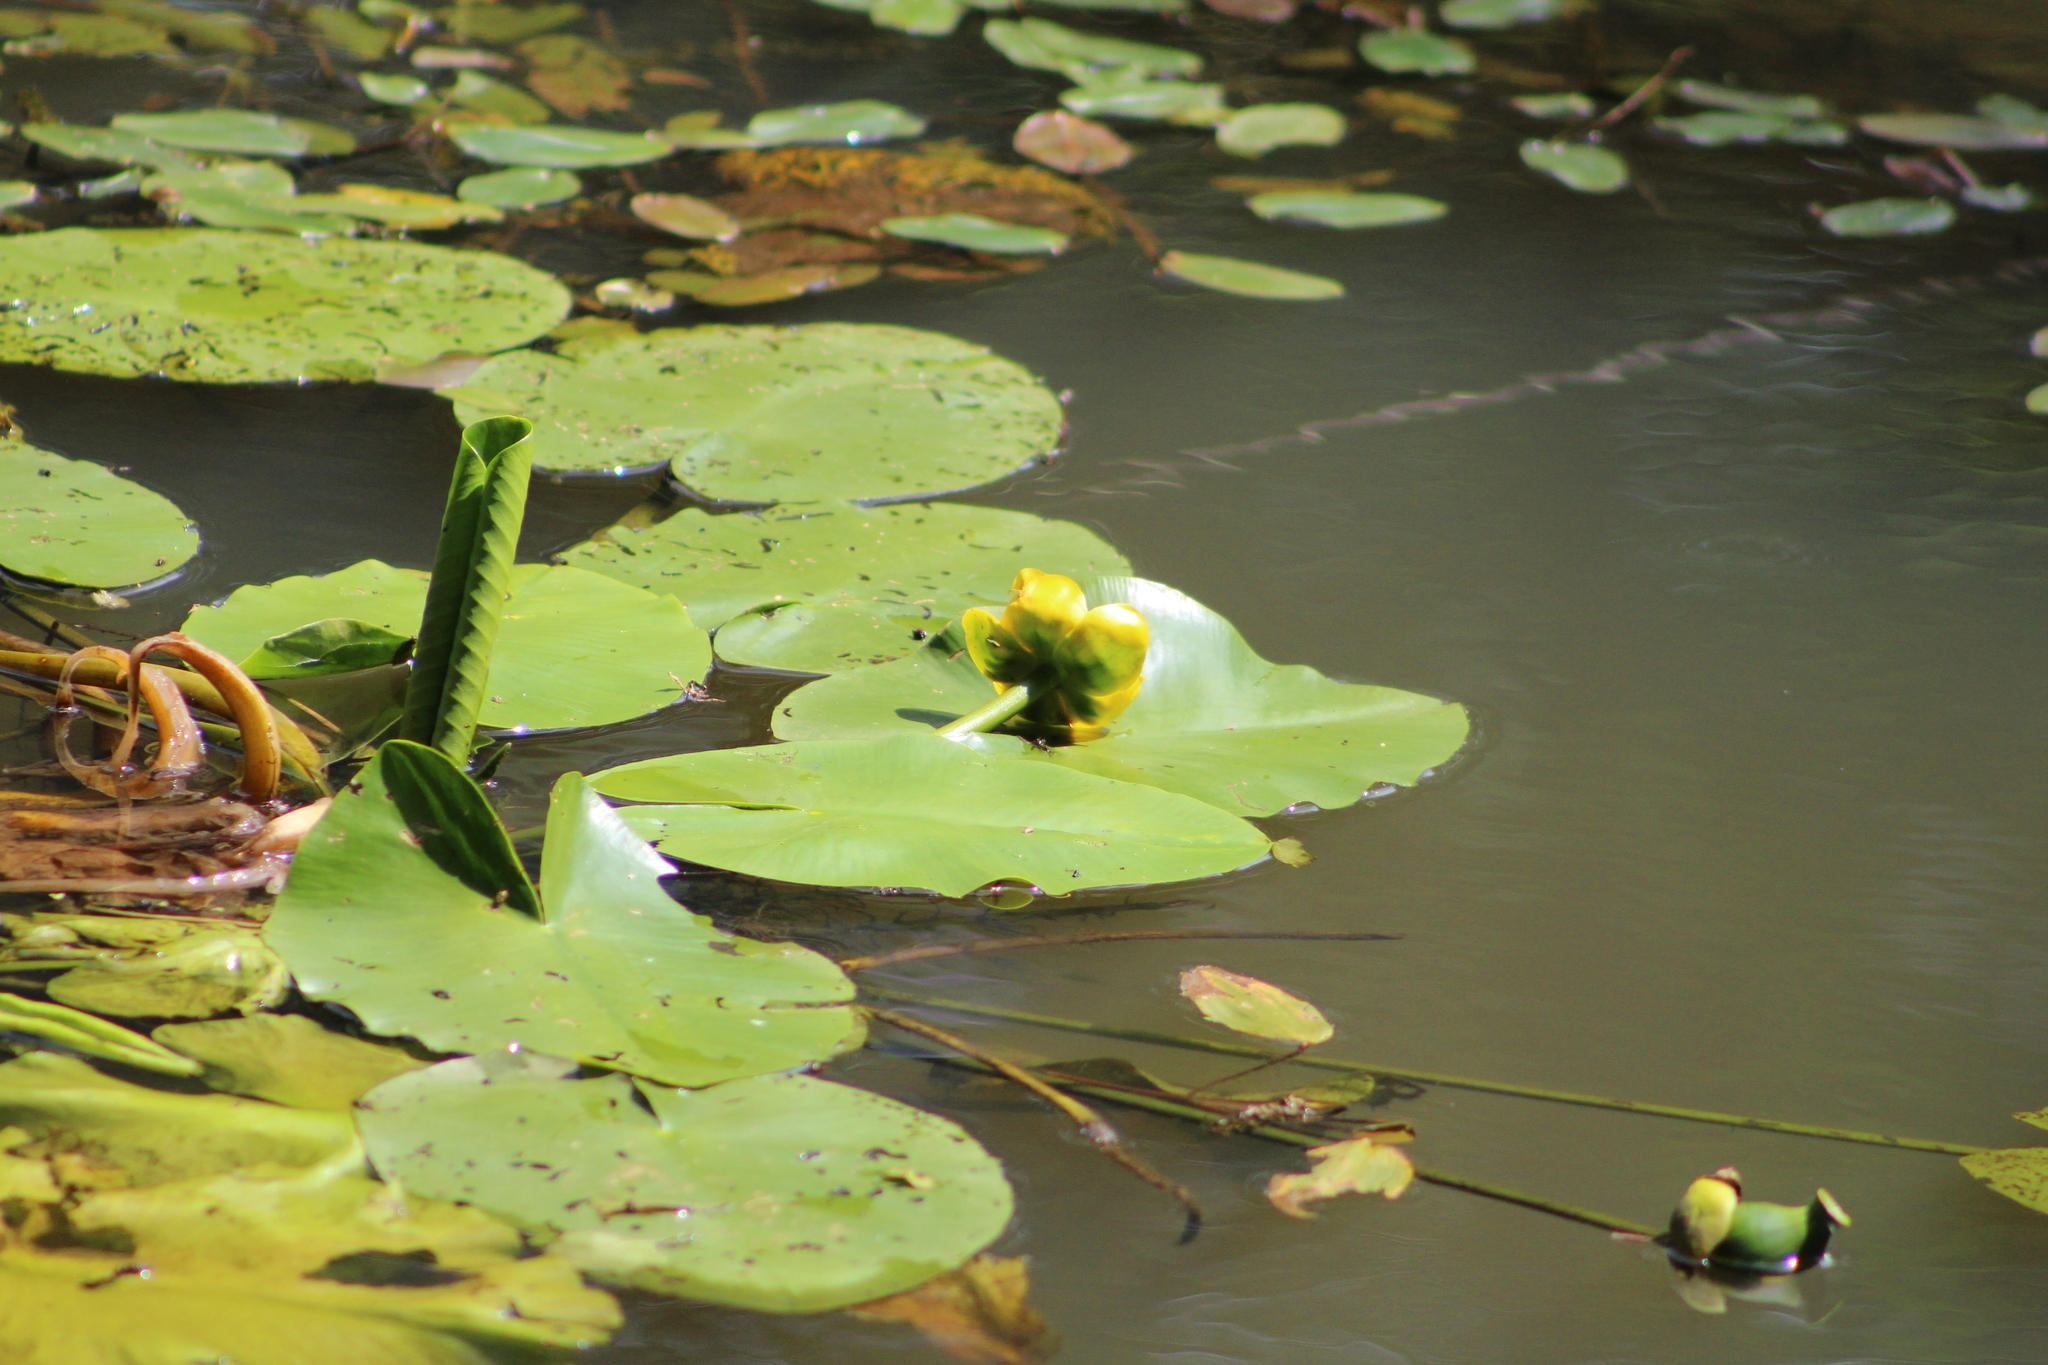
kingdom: Plantae
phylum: Tracheophyta
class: Magnoliopsida
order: Nymphaeales
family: Nymphaeaceae
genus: Nuphar
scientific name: Nuphar lutea
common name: Yellow water-lily
